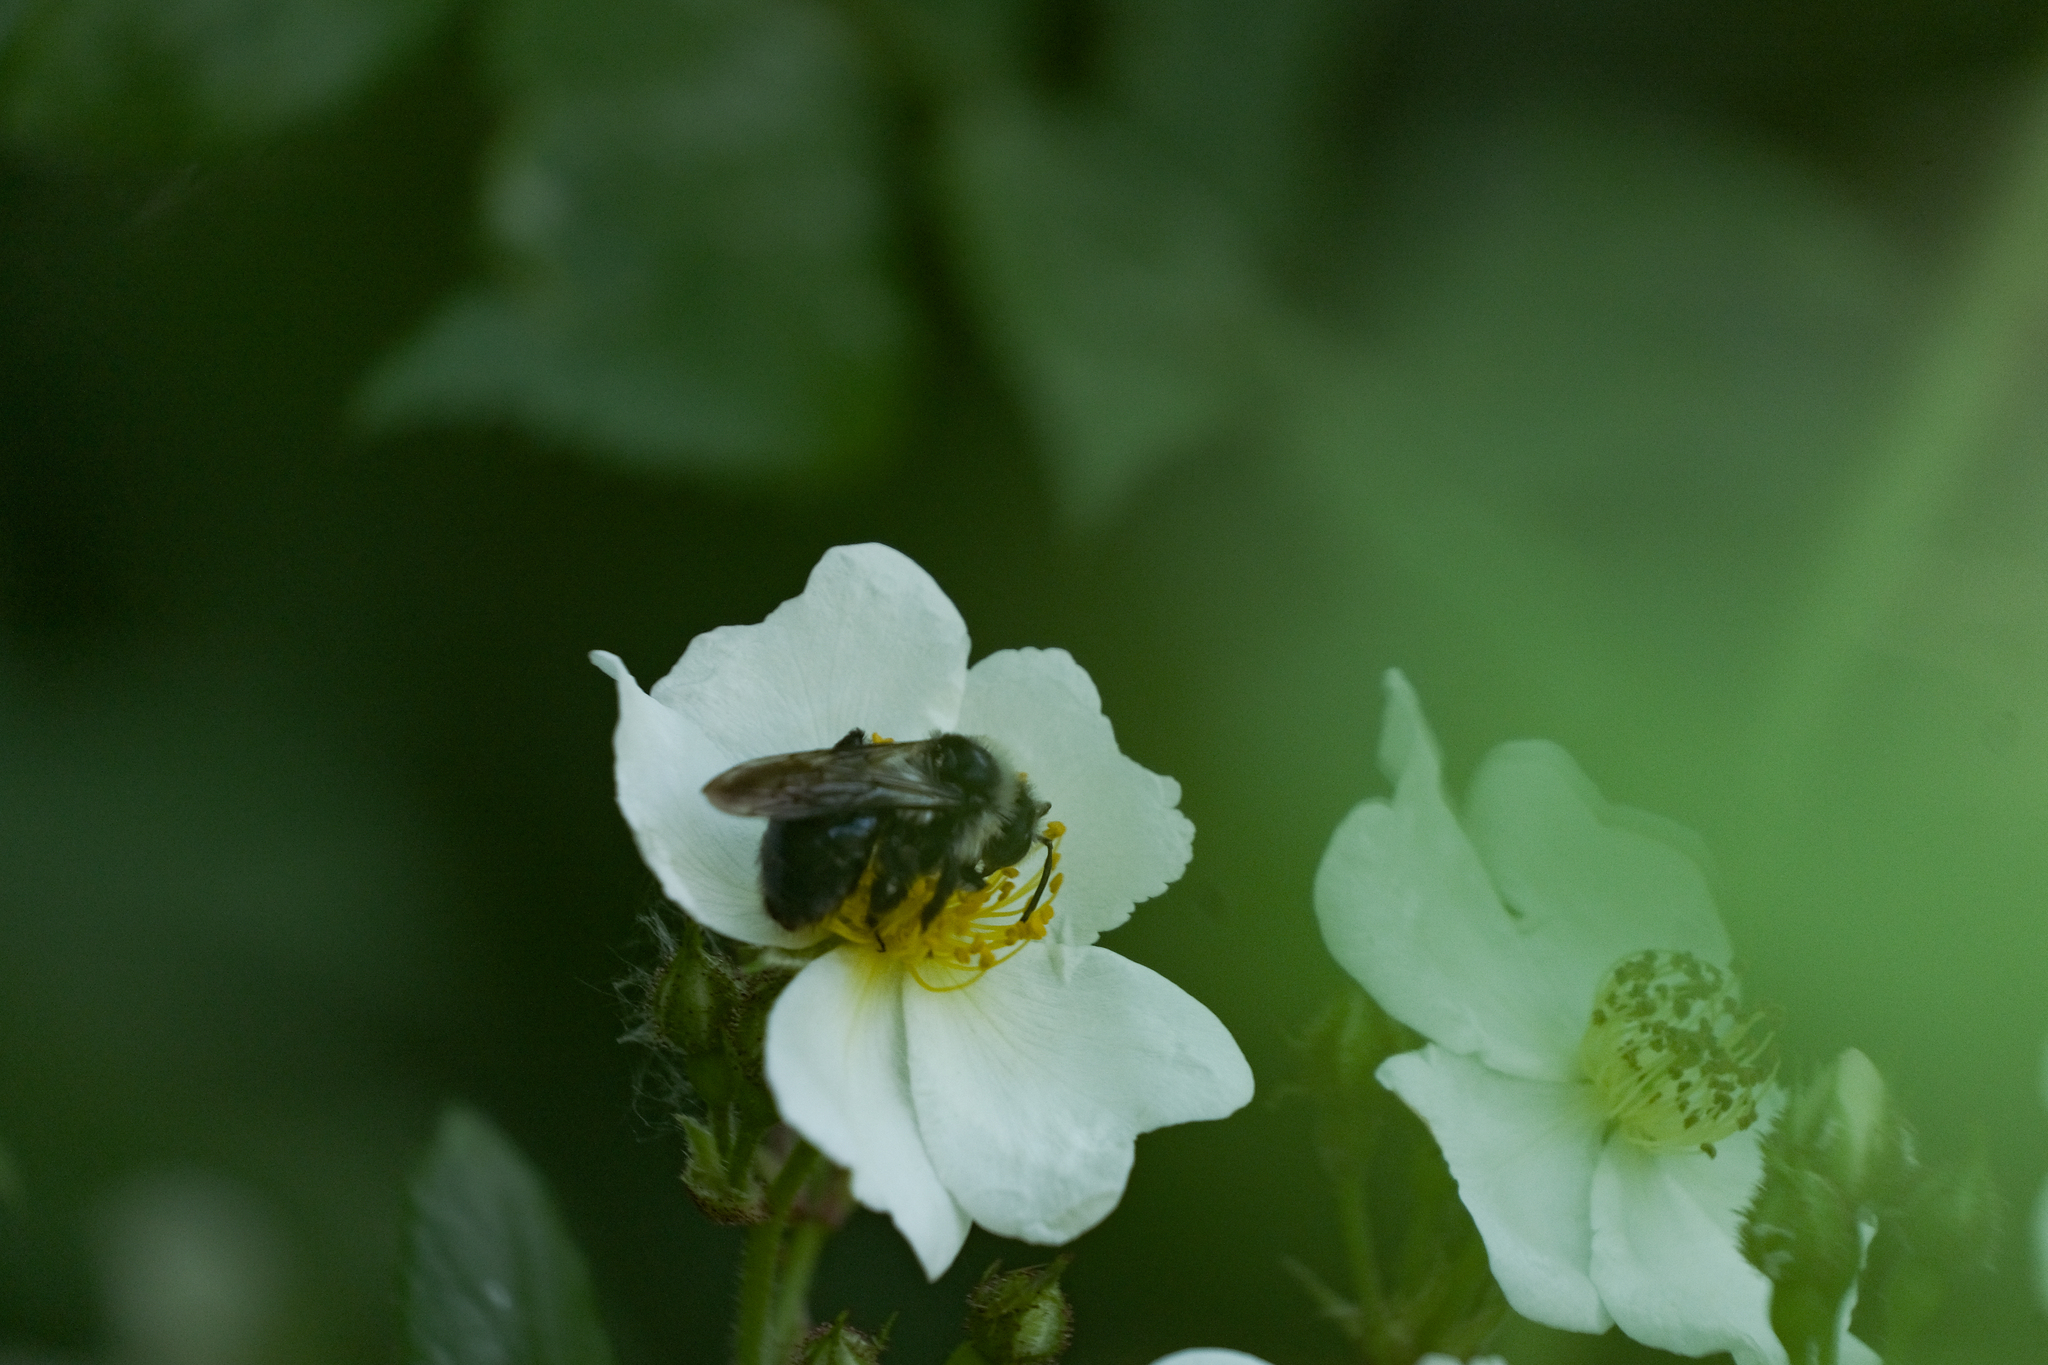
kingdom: Animalia
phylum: Arthropoda
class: Insecta
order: Hymenoptera
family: Andrenidae
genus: Andrena
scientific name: Andrena cineraria
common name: Ashy mining bee
